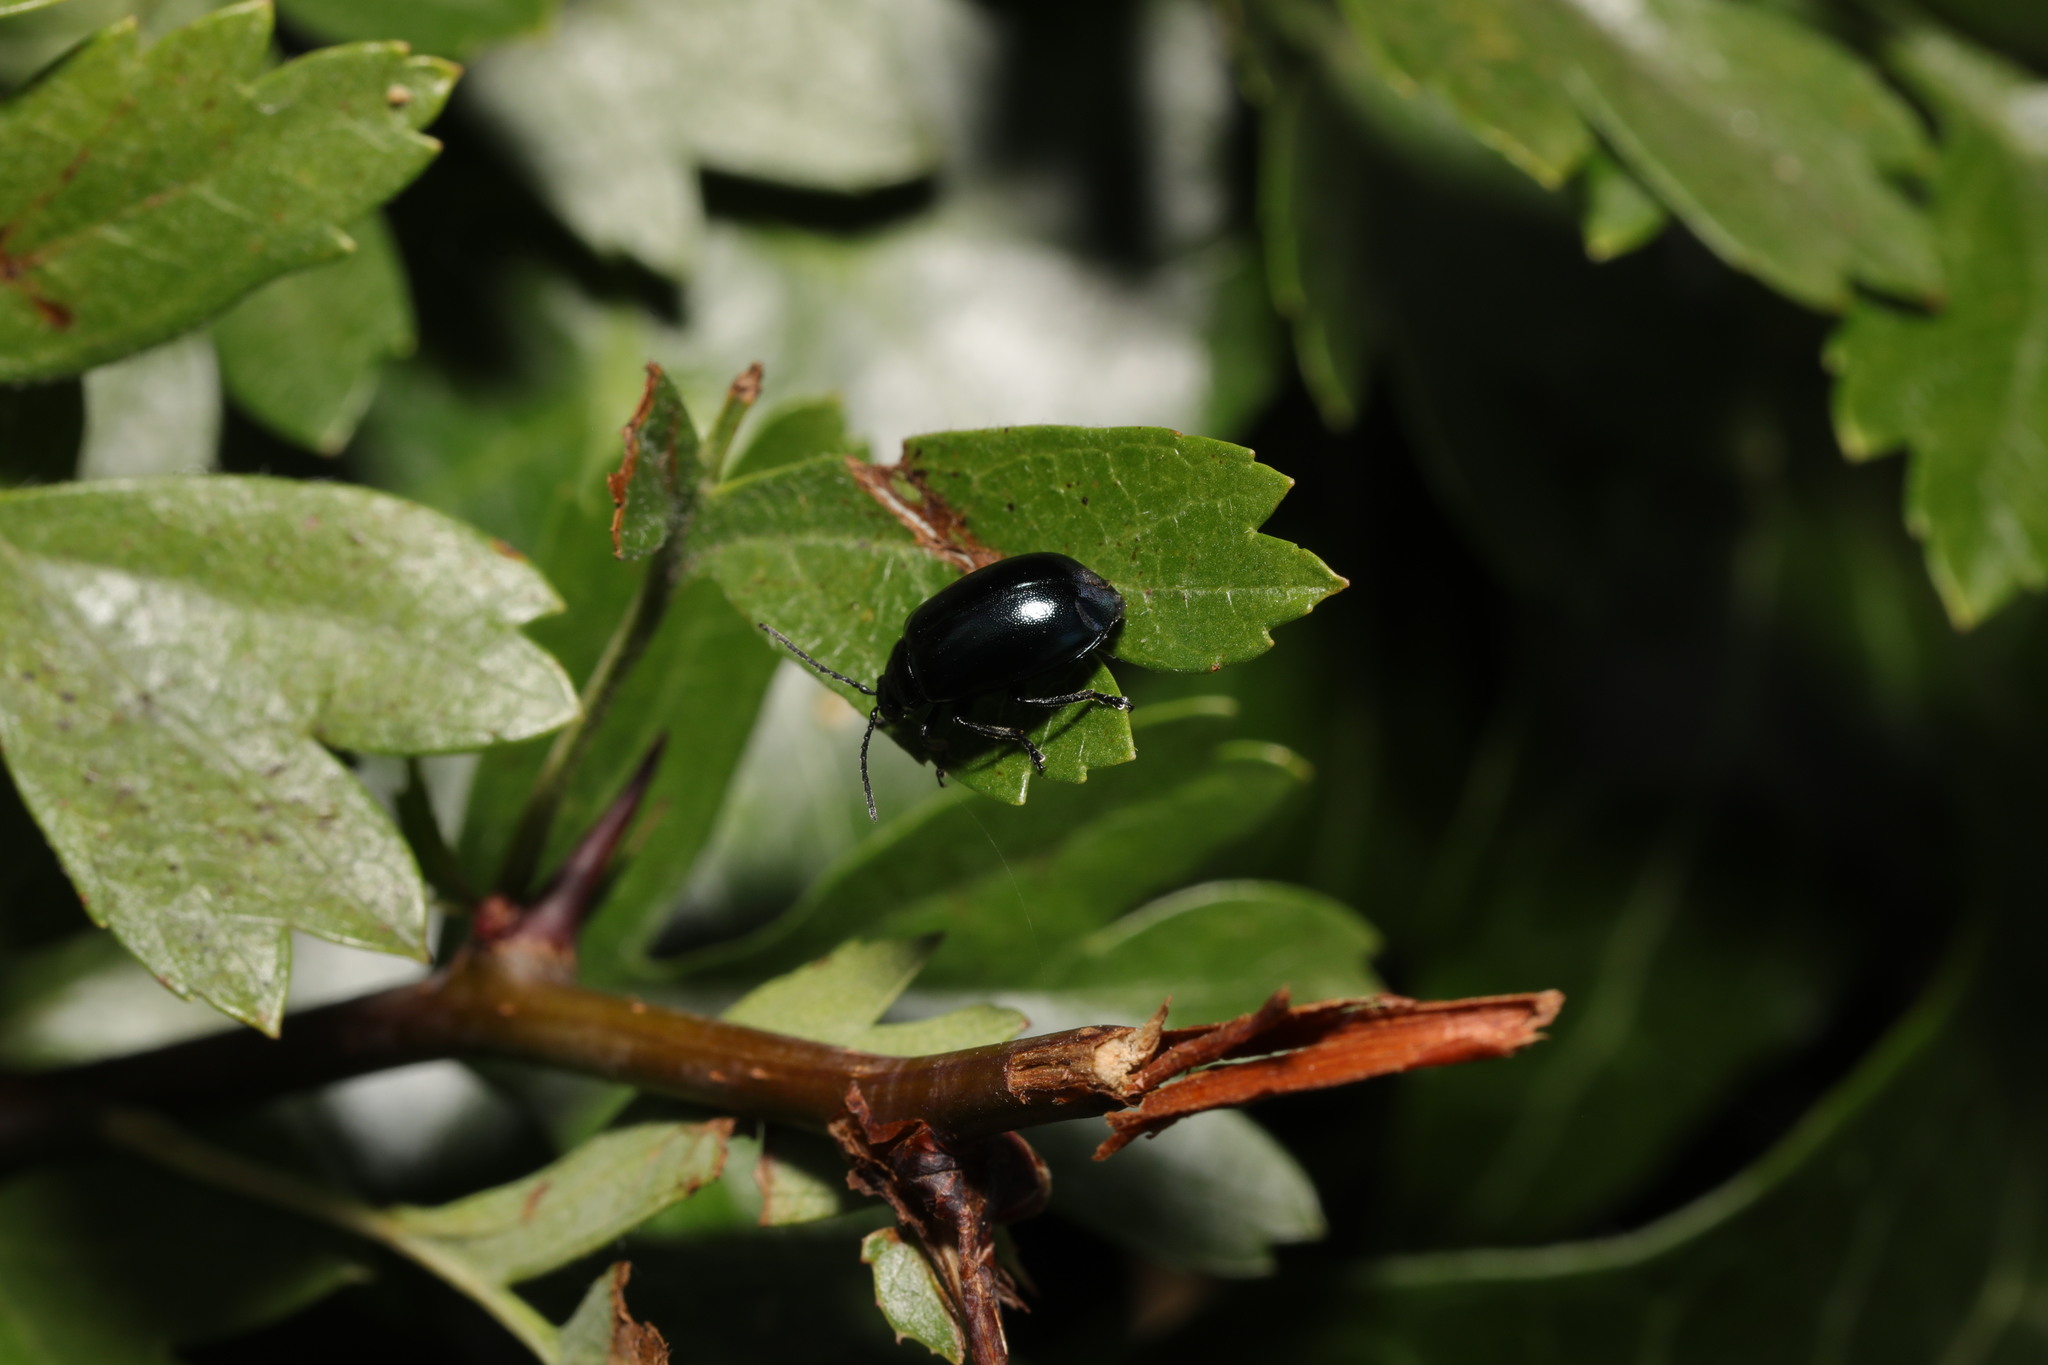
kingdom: Animalia
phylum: Arthropoda
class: Insecta
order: Coleoptera
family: Chrysomelidae
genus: Agelastica
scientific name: Agelastica alni
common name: Alder leaf beetle
